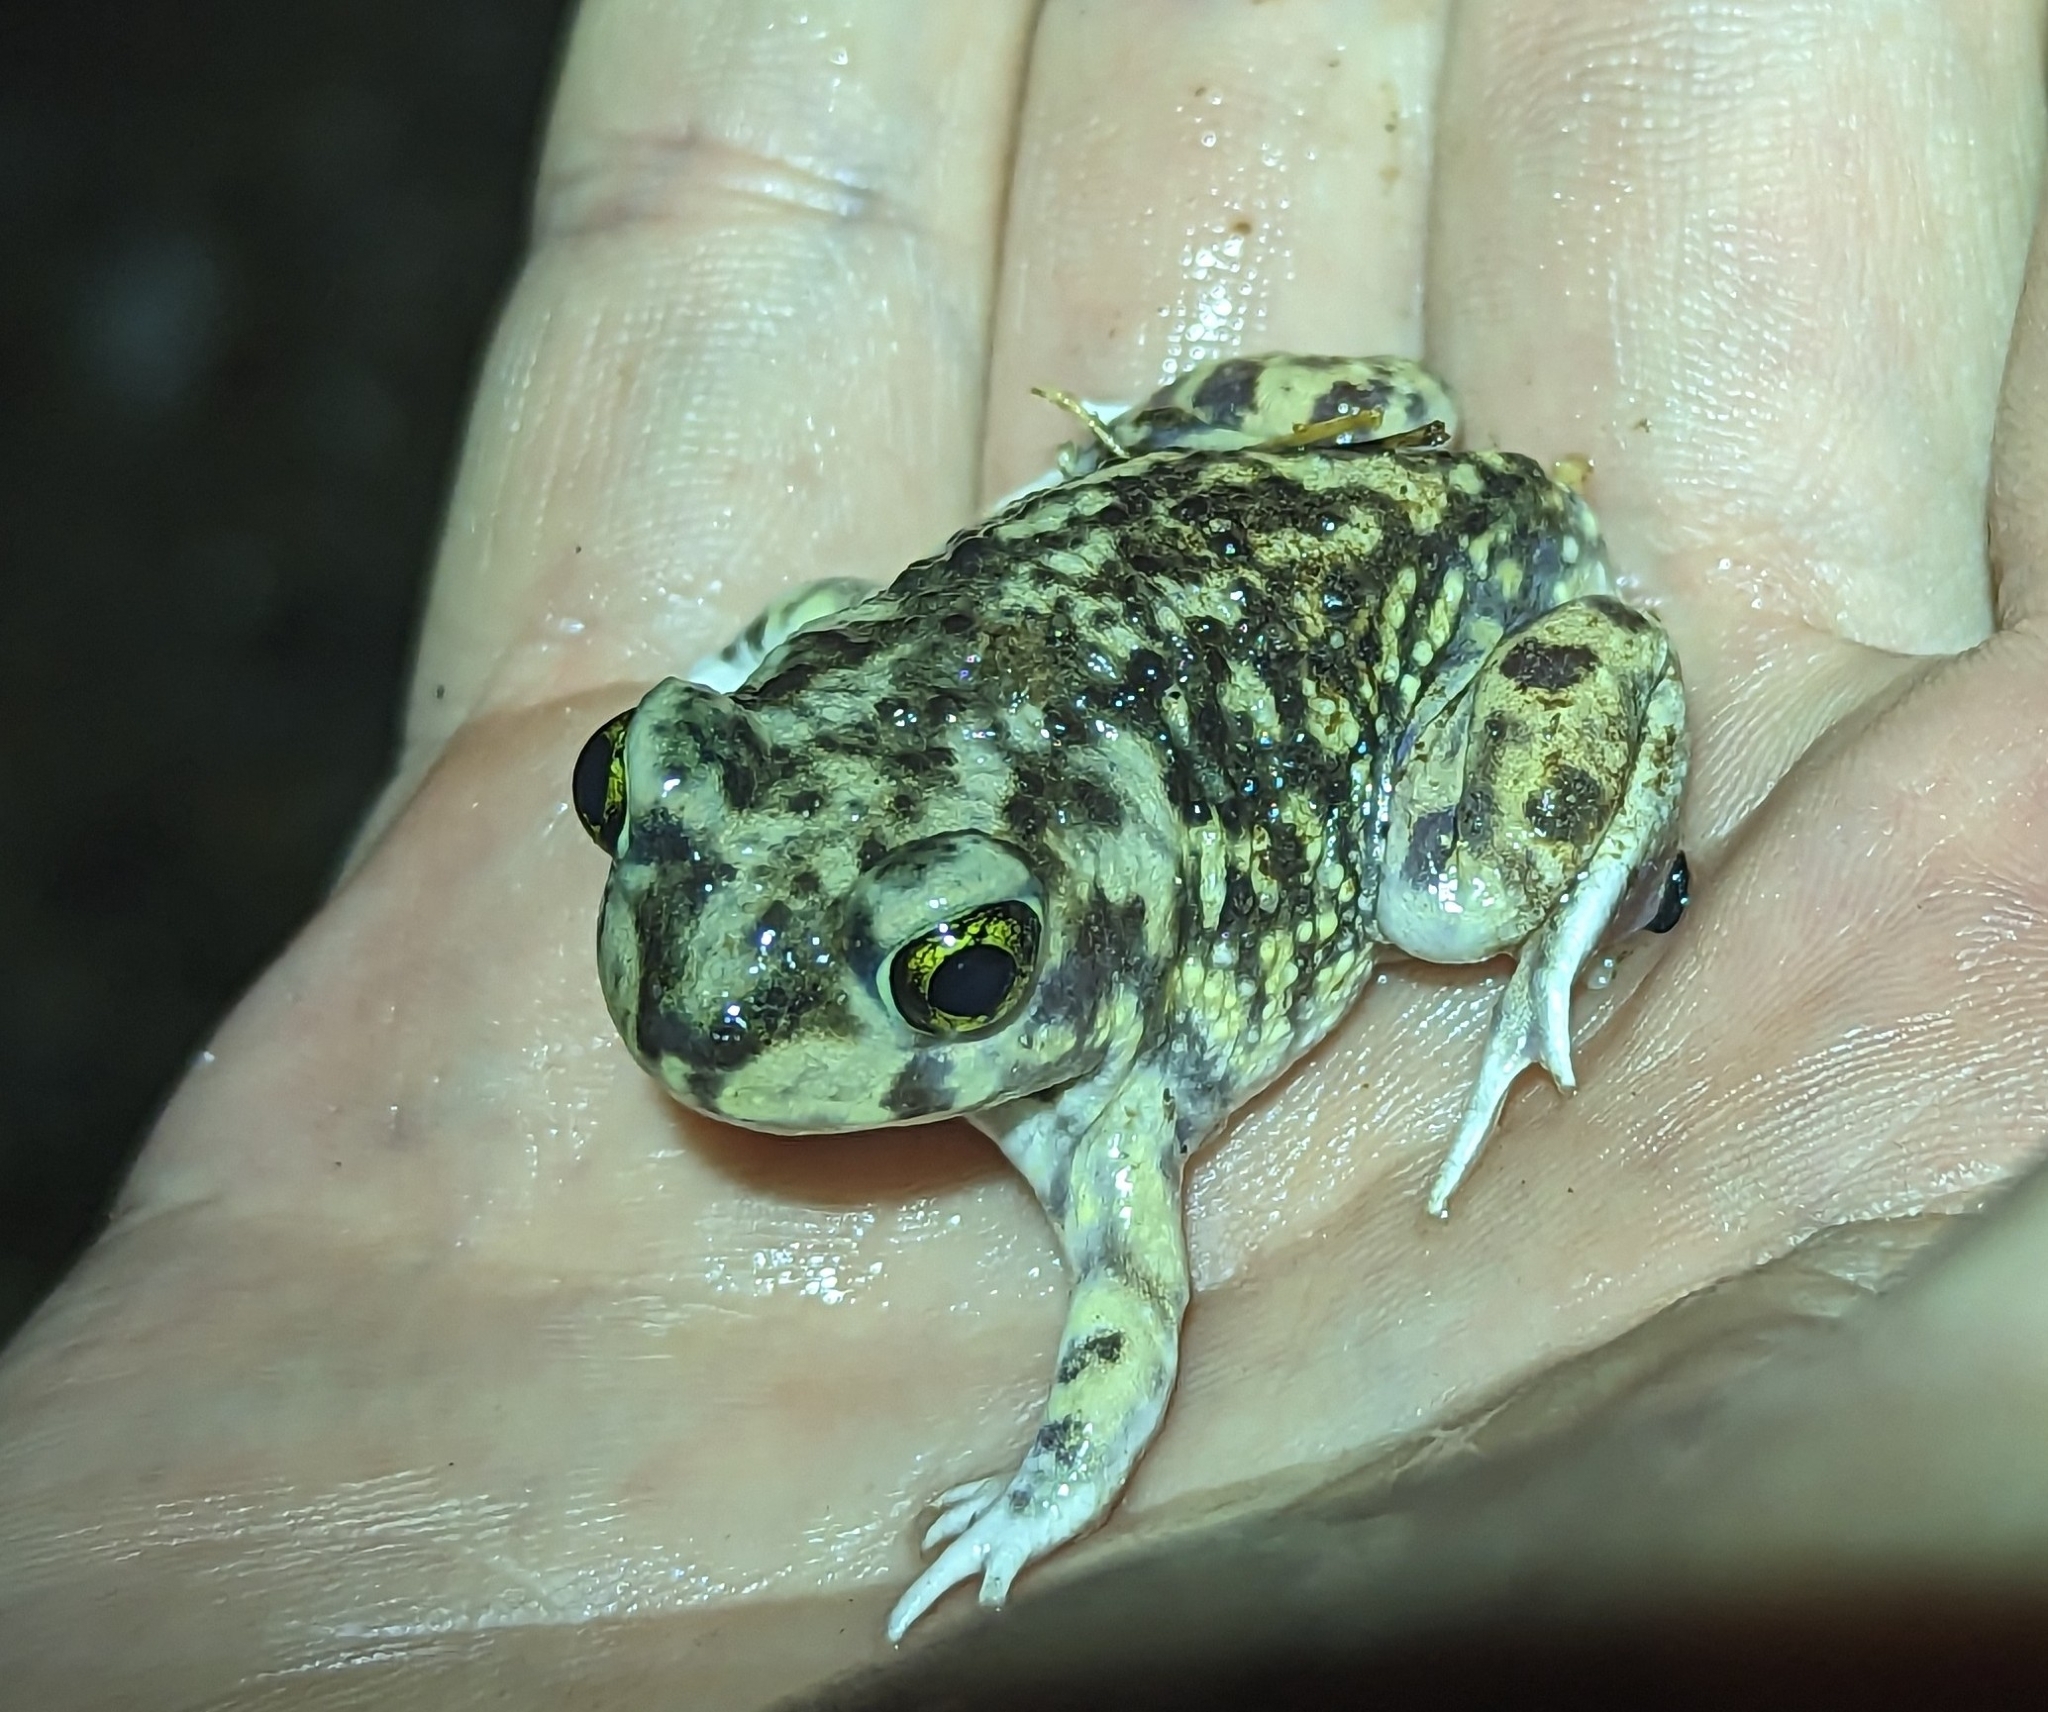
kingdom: Animalia
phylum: Chordata
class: Amphibia
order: Anura
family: Scaphiopodidae
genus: Scaphiopus
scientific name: Scaphiopus couchii
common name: Couch's spadefoot toad
